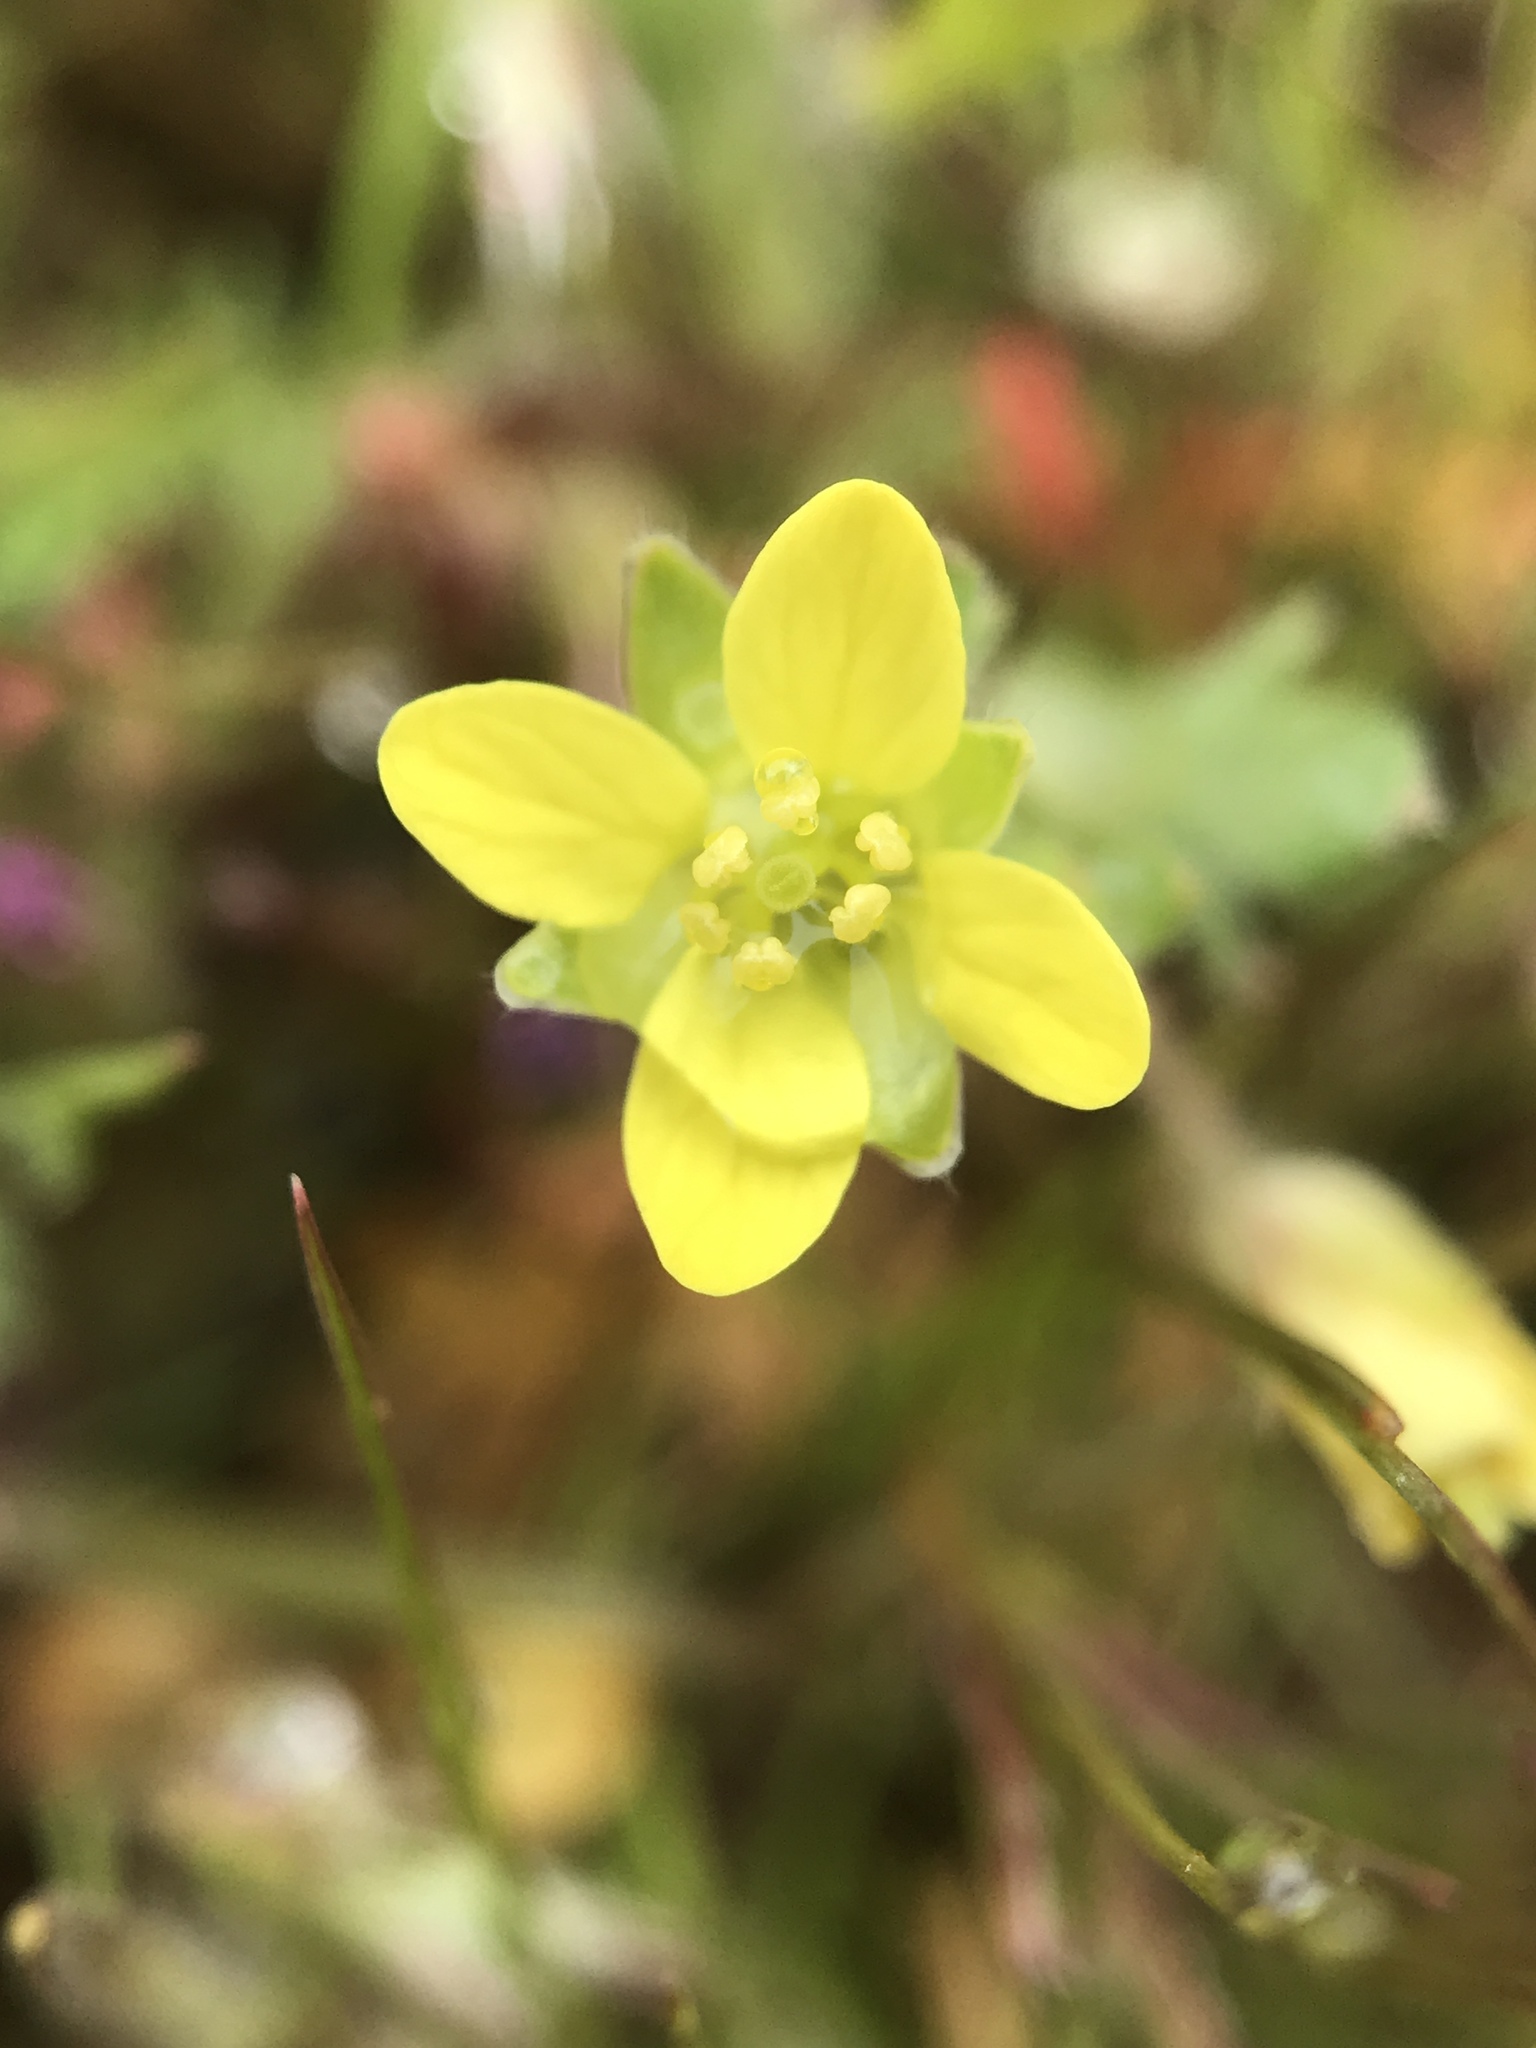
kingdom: Plantae
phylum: Tracheophyta
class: Magnoliopsida
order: Brassicales
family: Brassicaceae
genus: Tropidocarpum
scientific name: Tropidocarpum gracile
